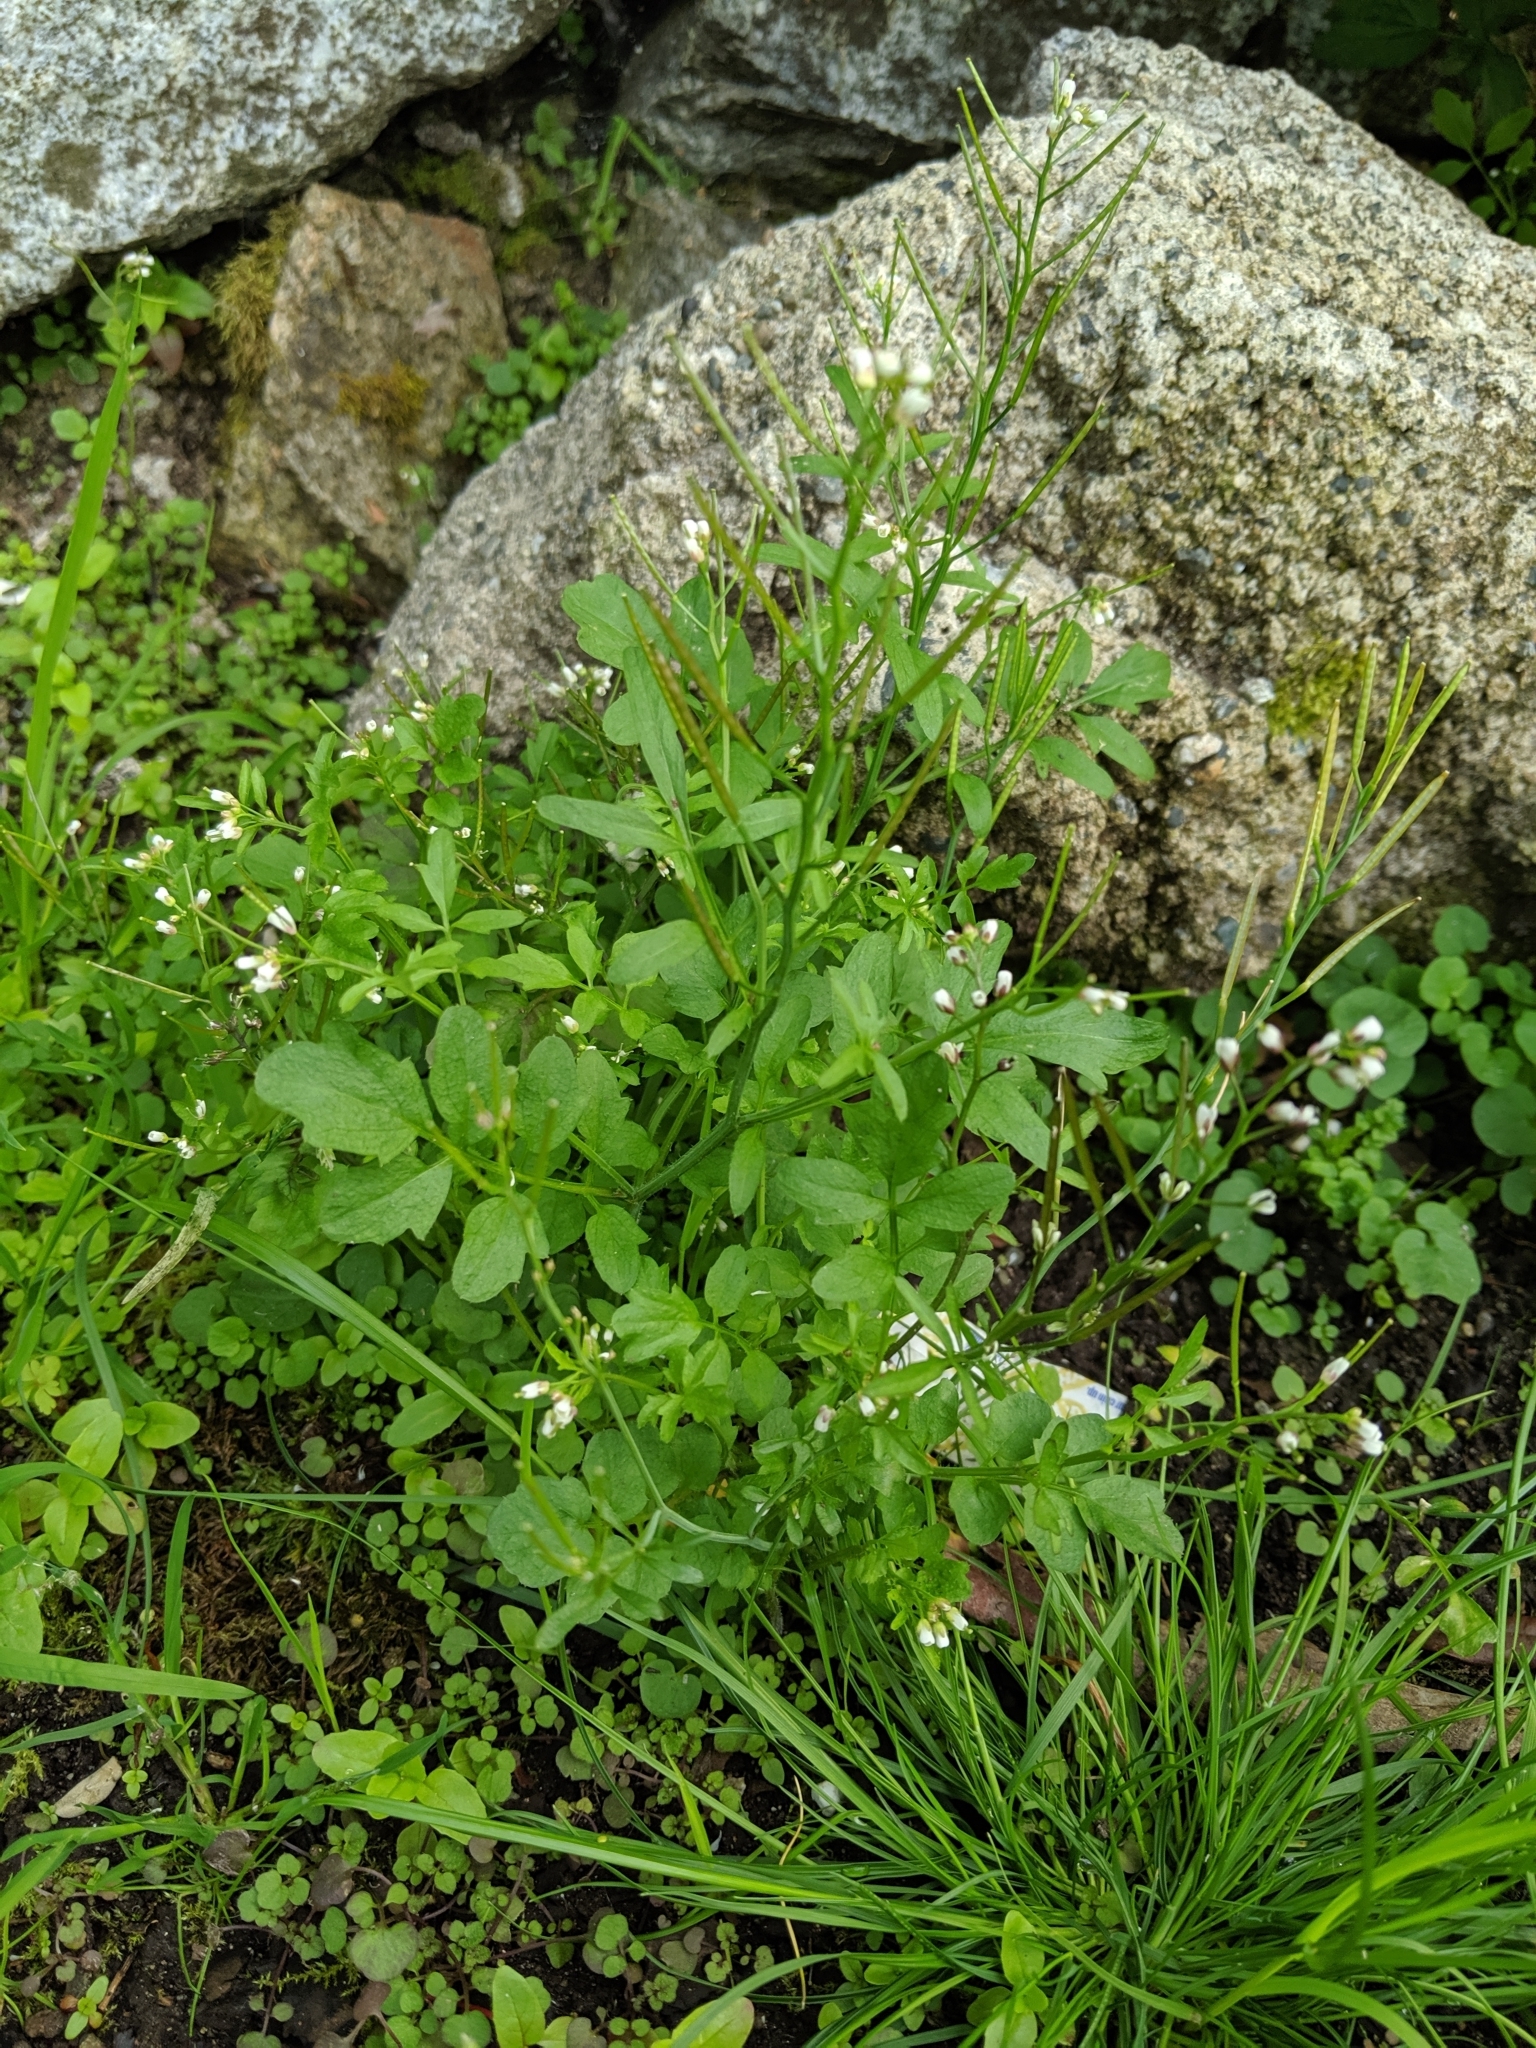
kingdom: Plantae
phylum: Tracheophyta
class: Magnoliopsida
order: Brassicales
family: Brassicaceae
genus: Cardamine
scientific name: Cardamine flexuosa
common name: Woodland bittercress
